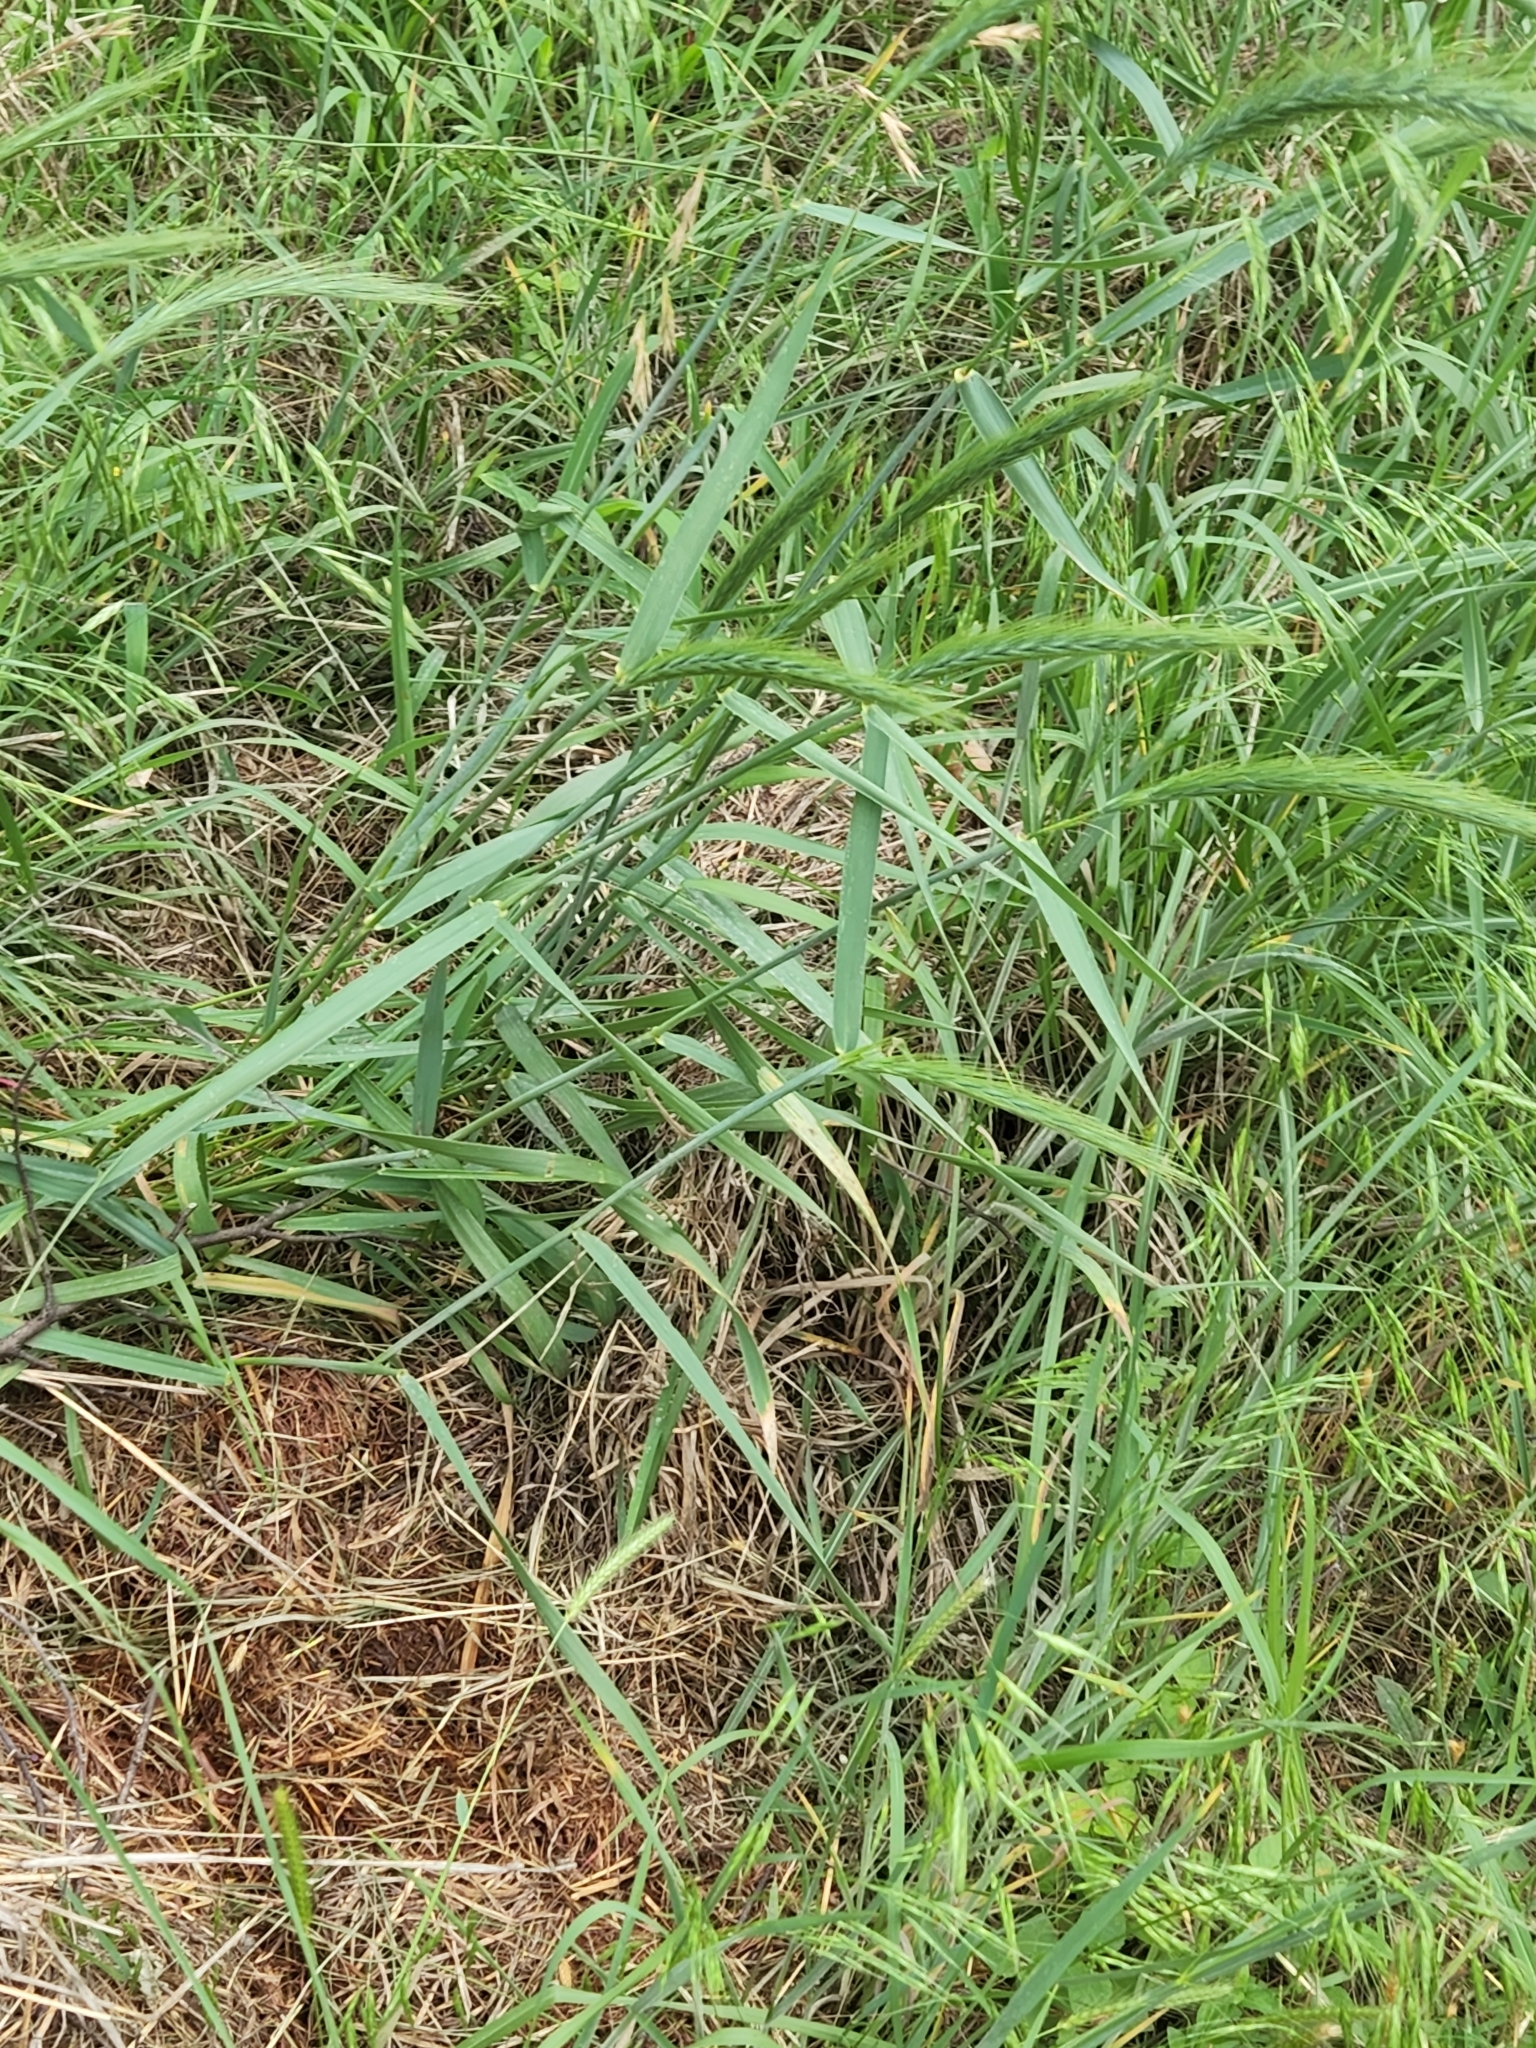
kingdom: Plantae
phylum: Tracheophyta
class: Liliopsida
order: Poales
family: Poaceae
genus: Elymus
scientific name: Elymus canadensis
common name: Canada wild rye
